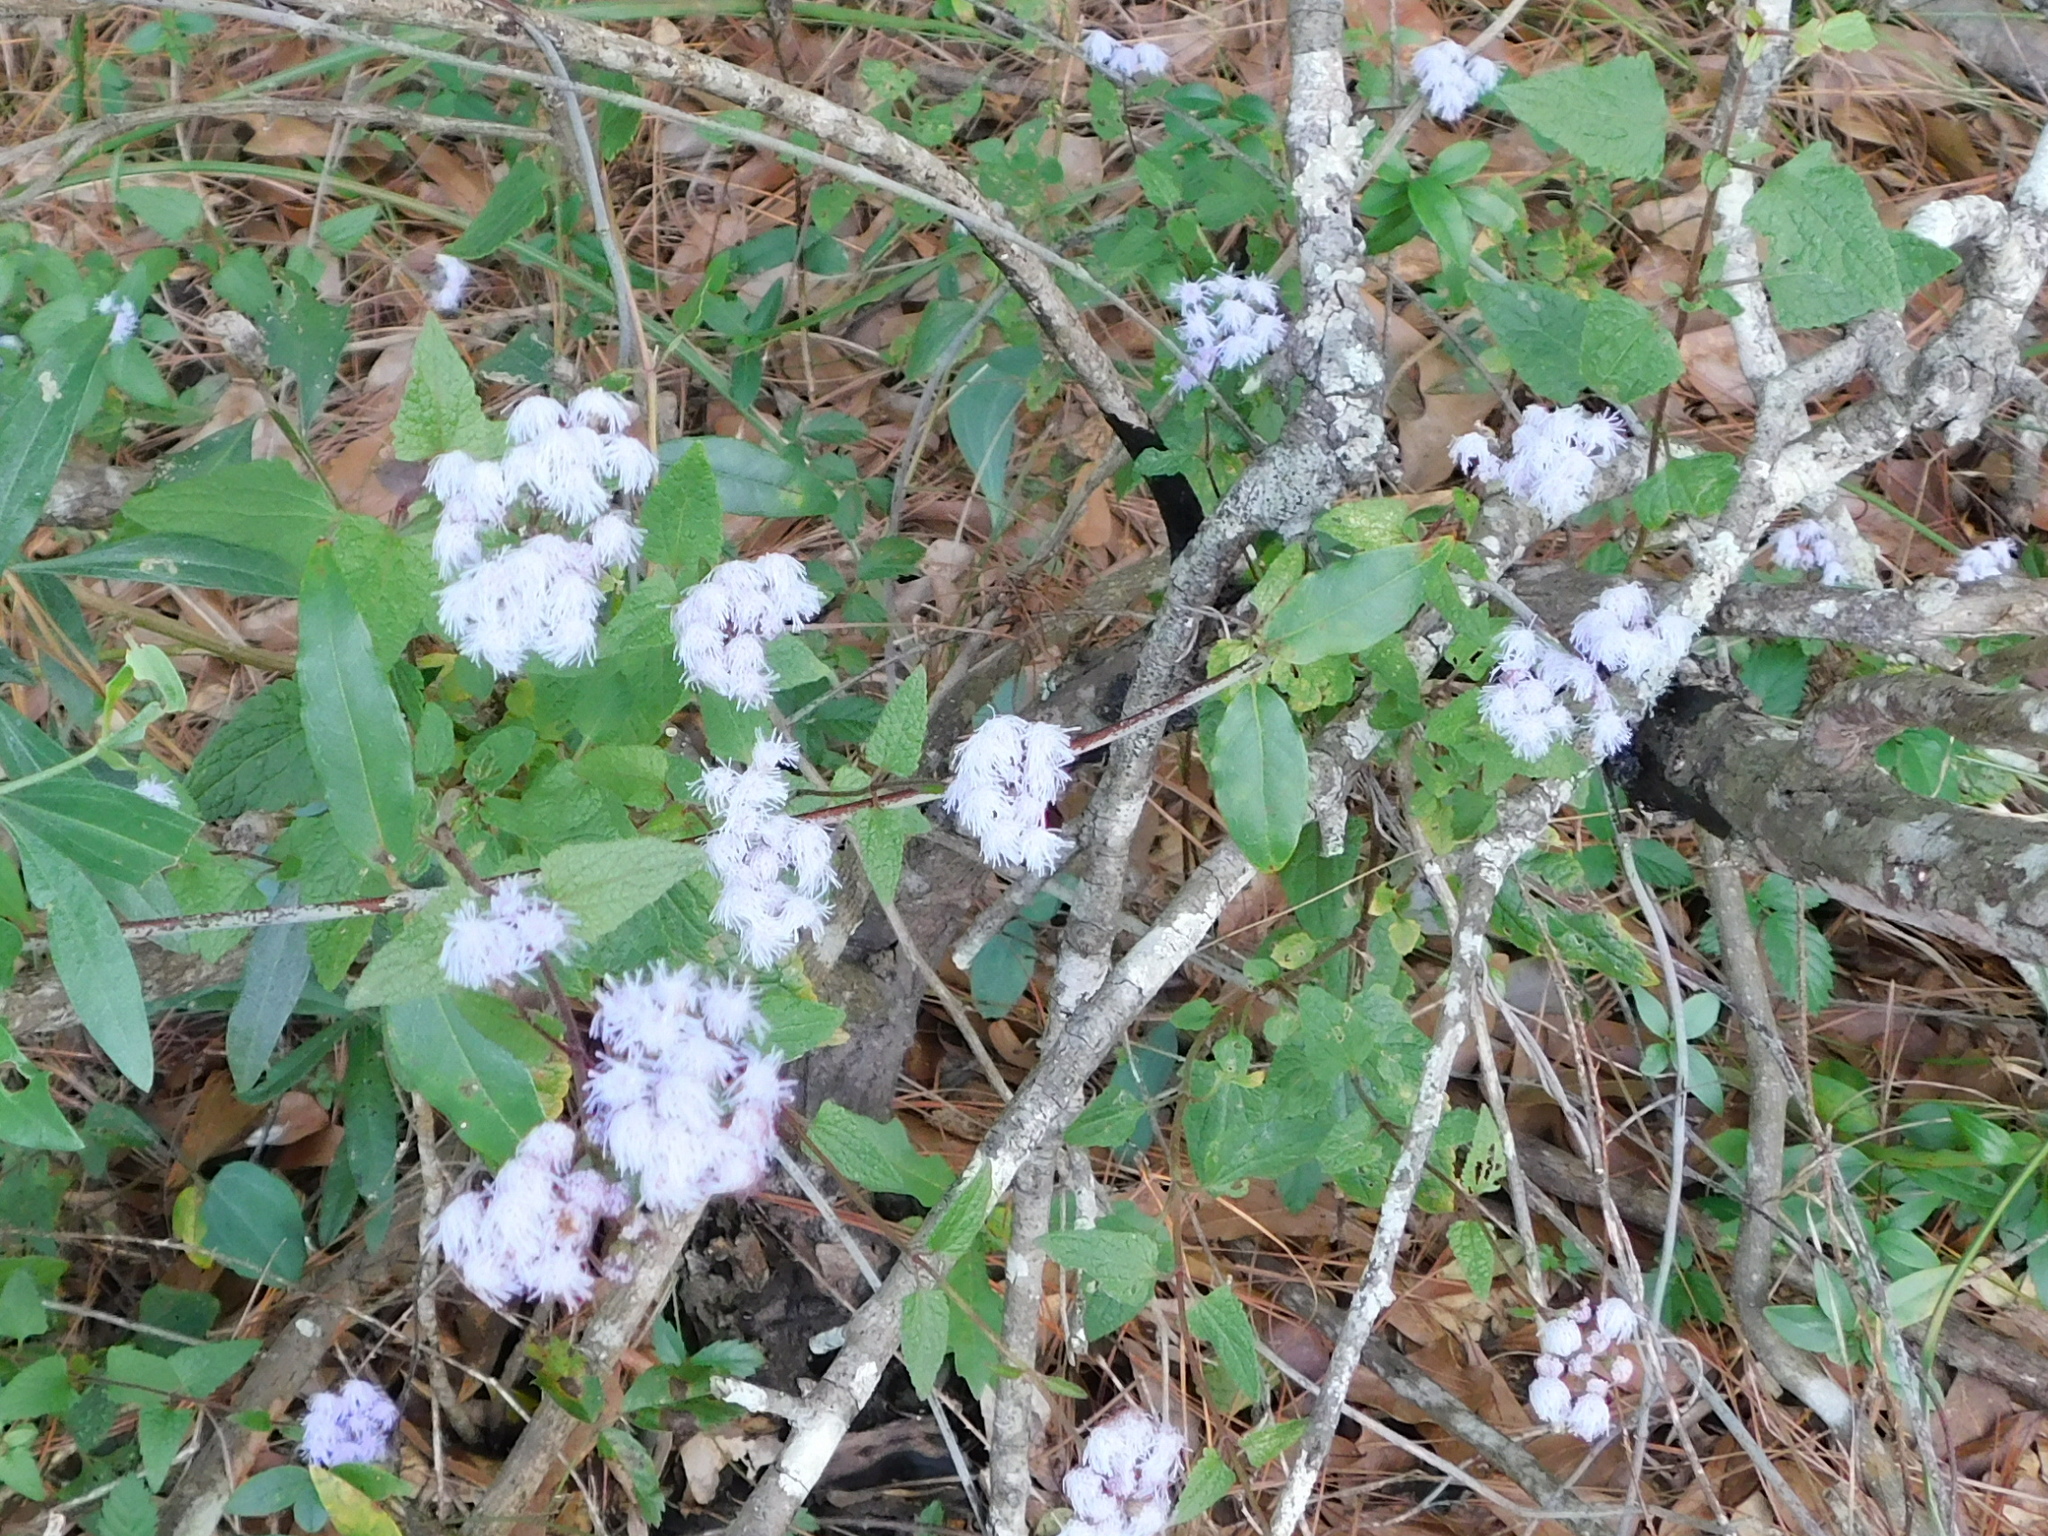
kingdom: Plantae
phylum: Tracheophyta
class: Magnoliopsida
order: Asterales
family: Asteraceae
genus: Conoclinium
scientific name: Conoclinium coelestinum
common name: Blue mistflower
